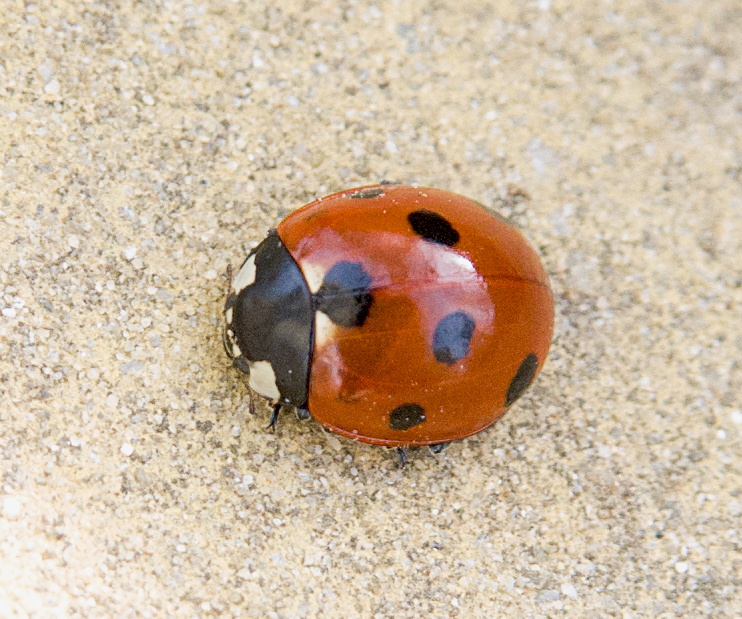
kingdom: Animalia
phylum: Arthropoda
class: Insecta
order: Coleoptera
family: Coccinellidae
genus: Coccinella
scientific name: Coccinella septempunctata
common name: Sevenspotted lady beetle
